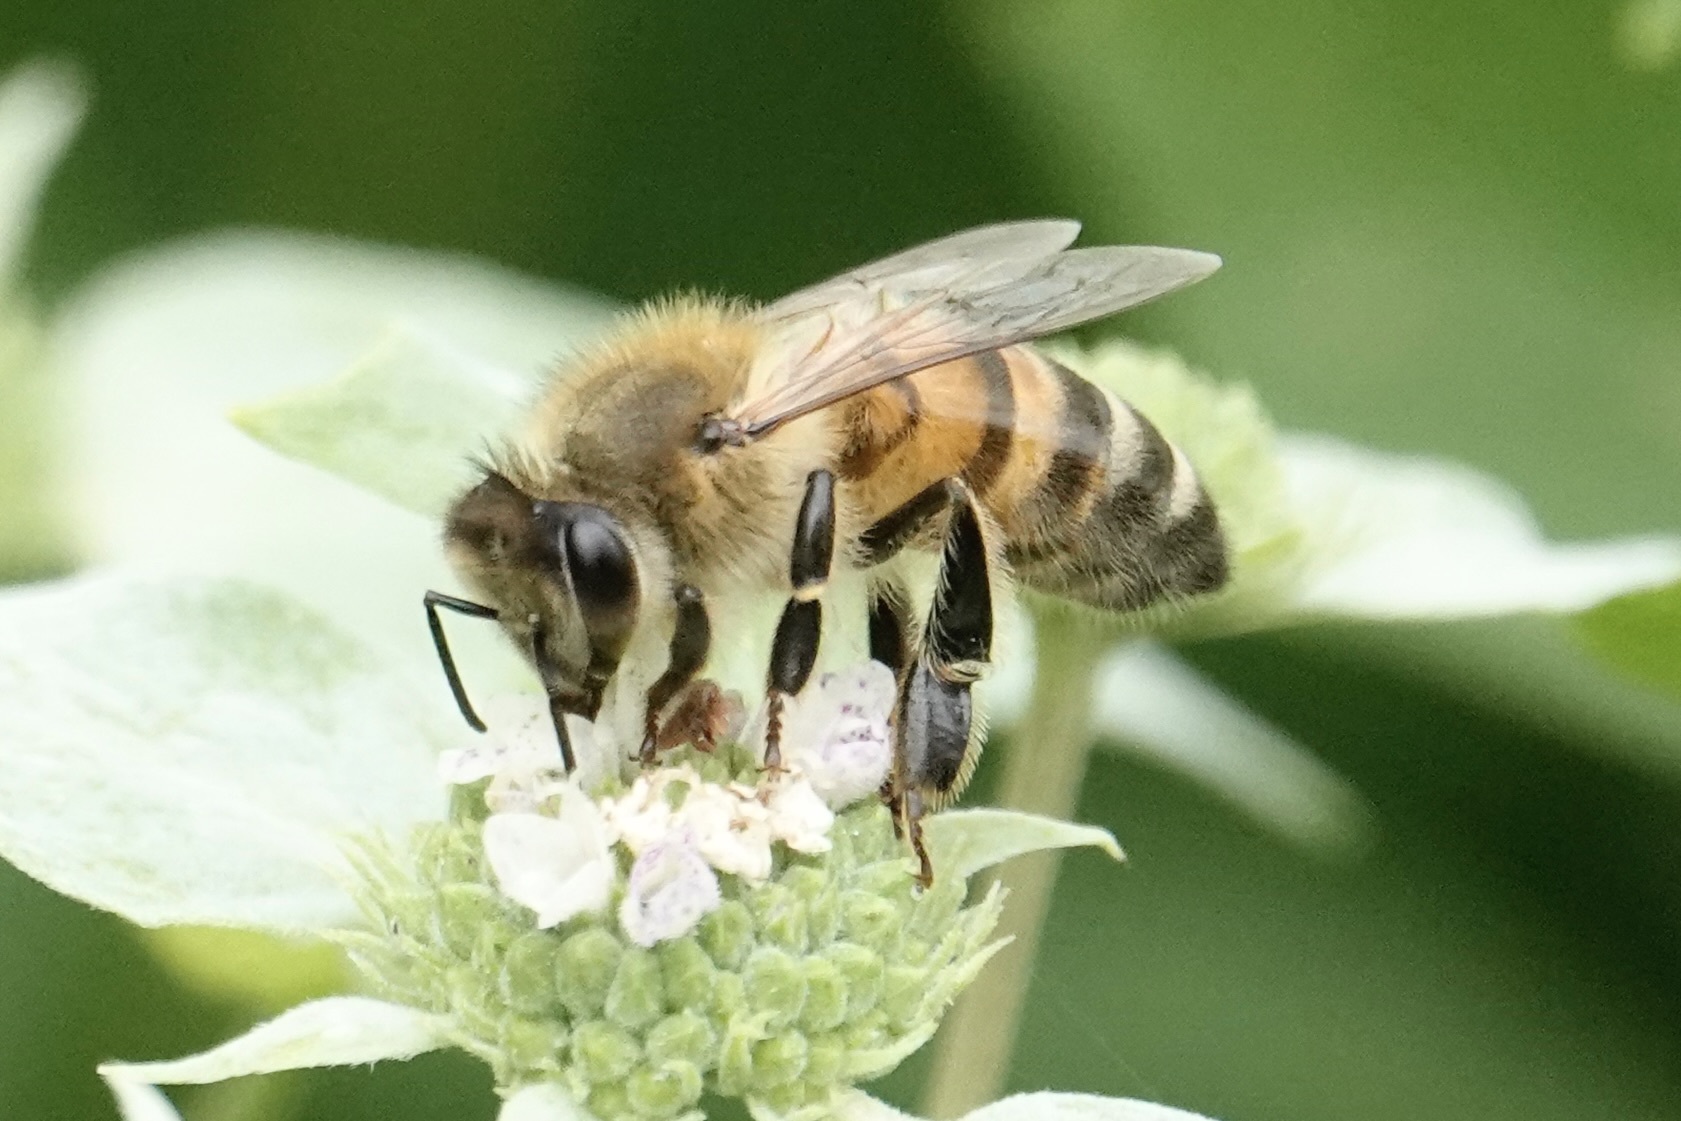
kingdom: Animalia
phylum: Arthropoda
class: Insecta
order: Hymenoptera
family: Apidae
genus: Apis
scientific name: Apis mellifera
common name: Honey bee
